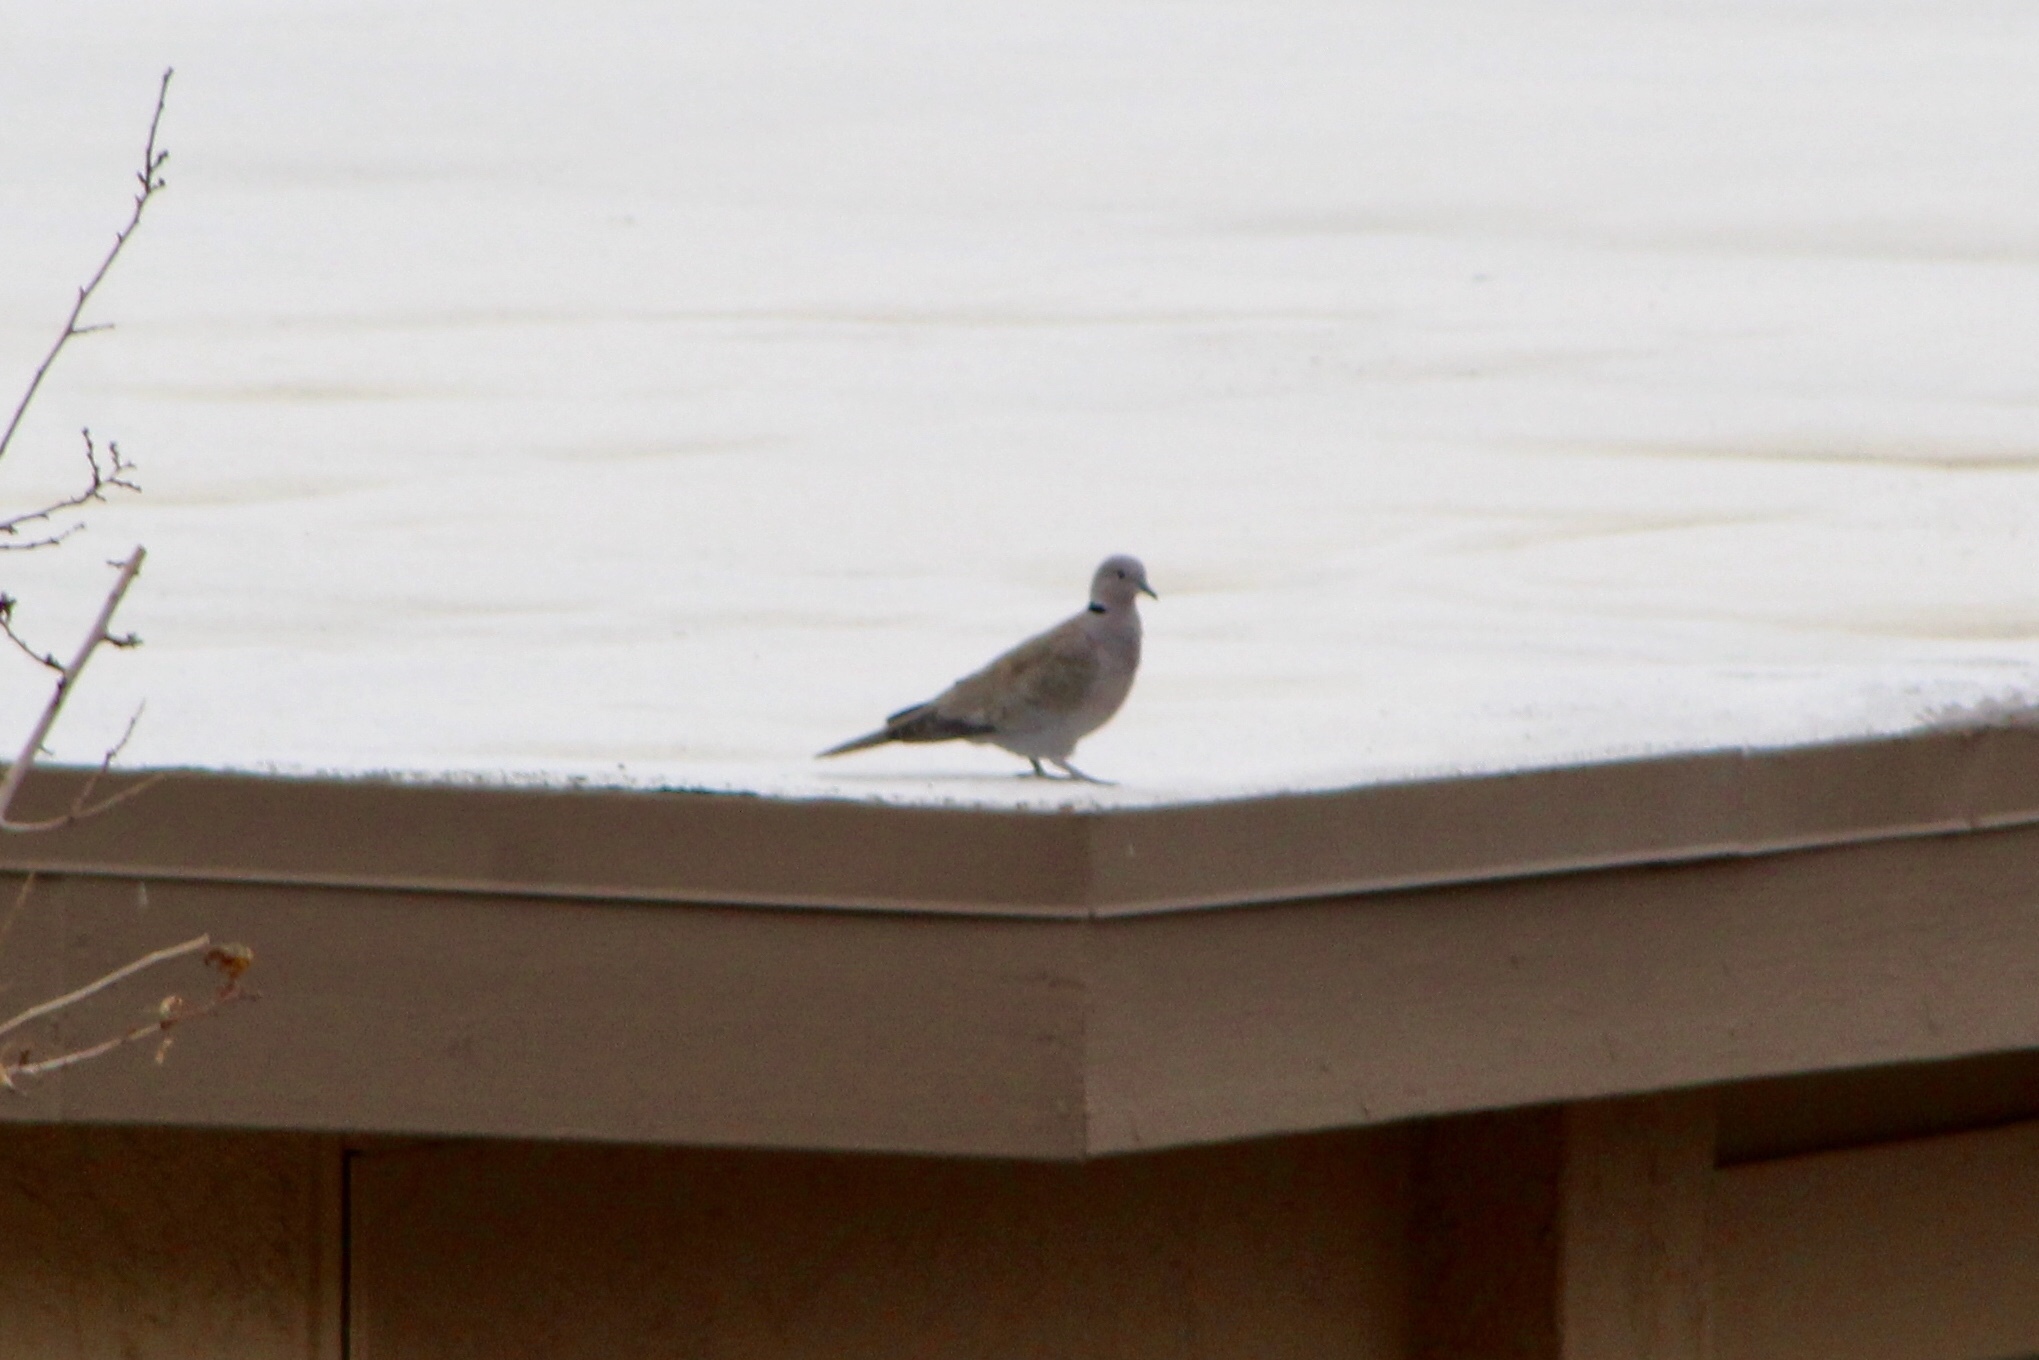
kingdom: Animalia
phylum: Chordata
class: Aves
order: Columbiformes
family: Columbidae
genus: Streptopelia
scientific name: Streptopelia decaocto
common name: Eurasian collared dove
